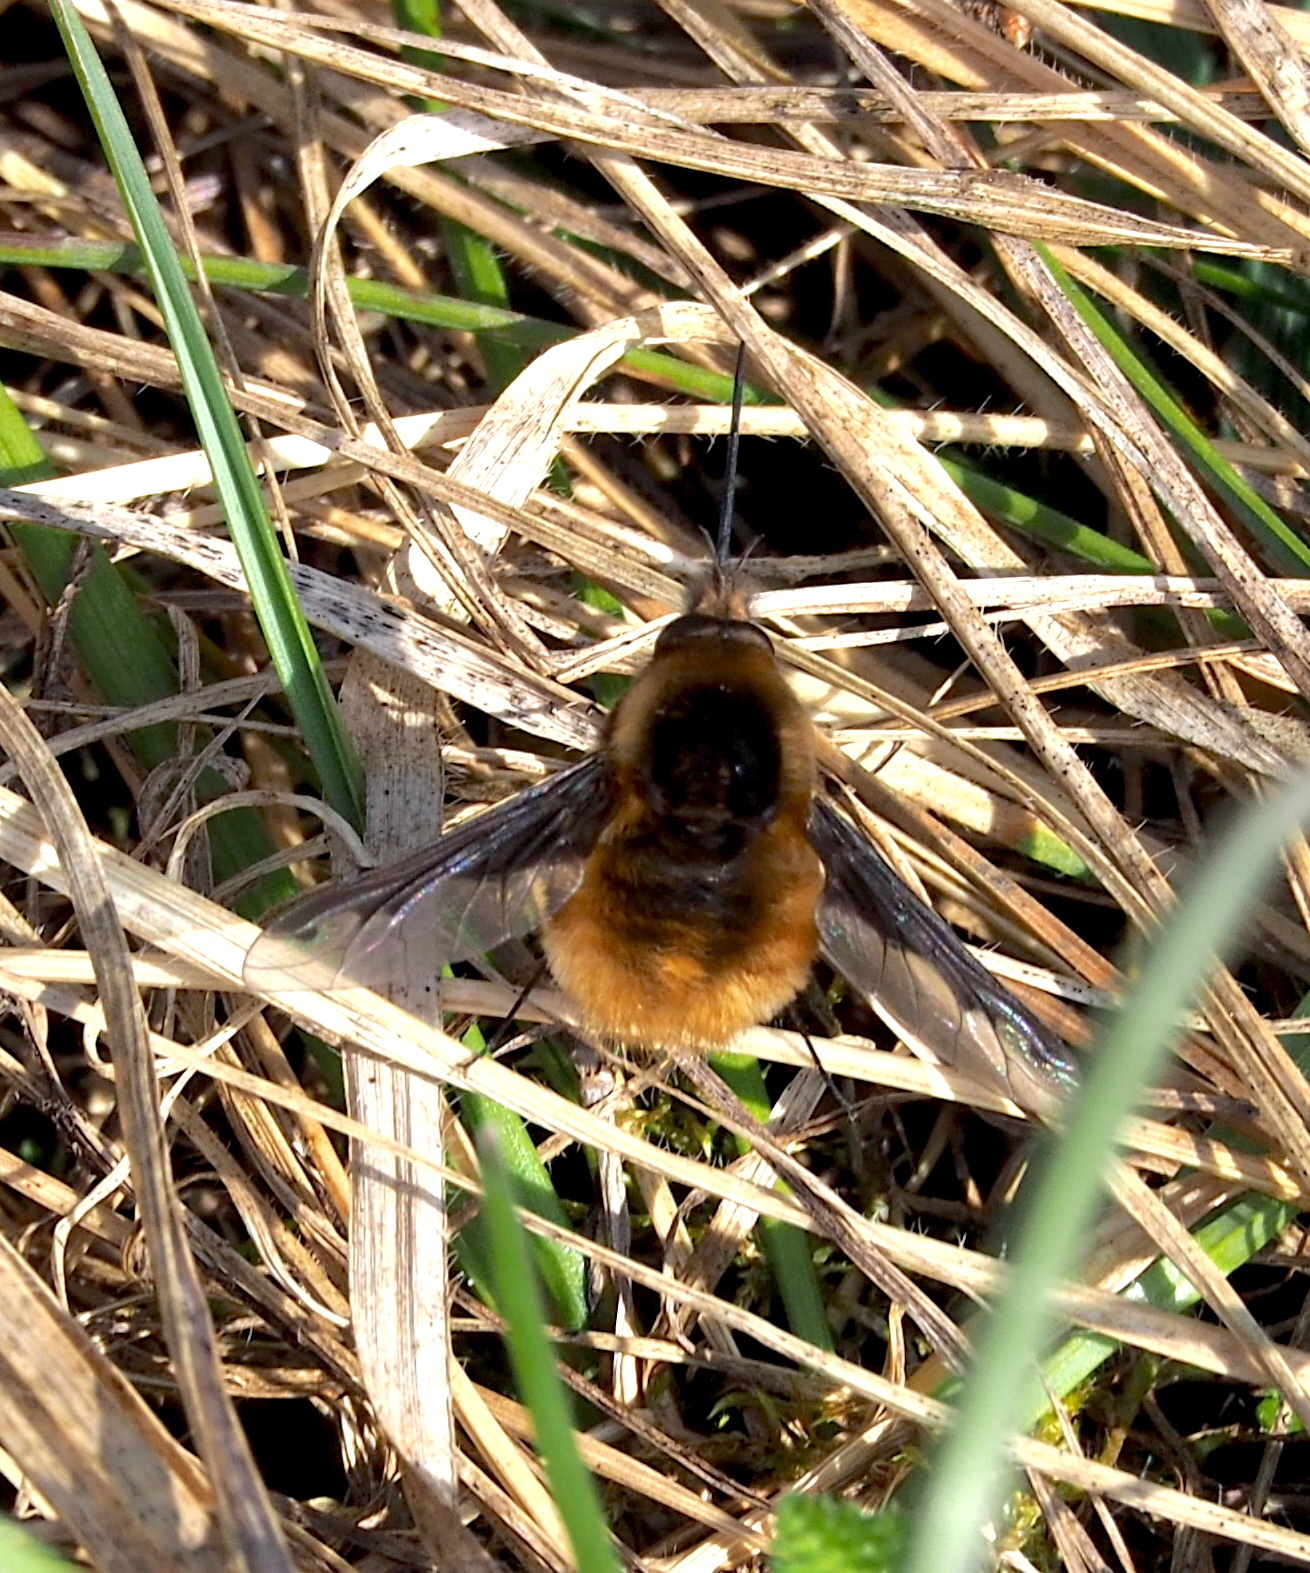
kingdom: Animalia
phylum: Arthropoda
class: Insecta
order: Diptera
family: Bombyliidae
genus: Bombylius
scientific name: Bombylius major
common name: Bee fly
